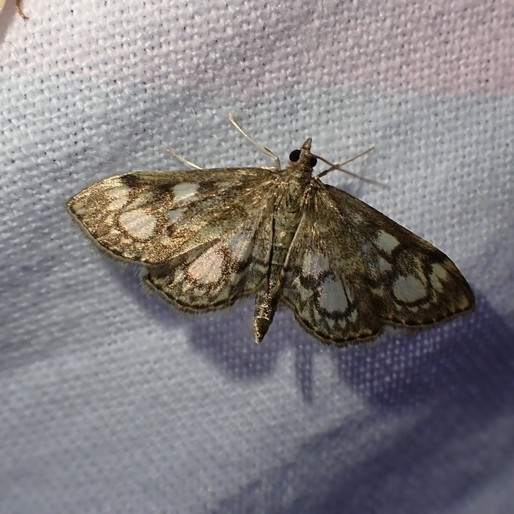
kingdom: Animalia
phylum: Arthropoda
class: Insecta
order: Lepidoptera
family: Crambidae
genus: Anania
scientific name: Anania coronata
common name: Elder pearl
